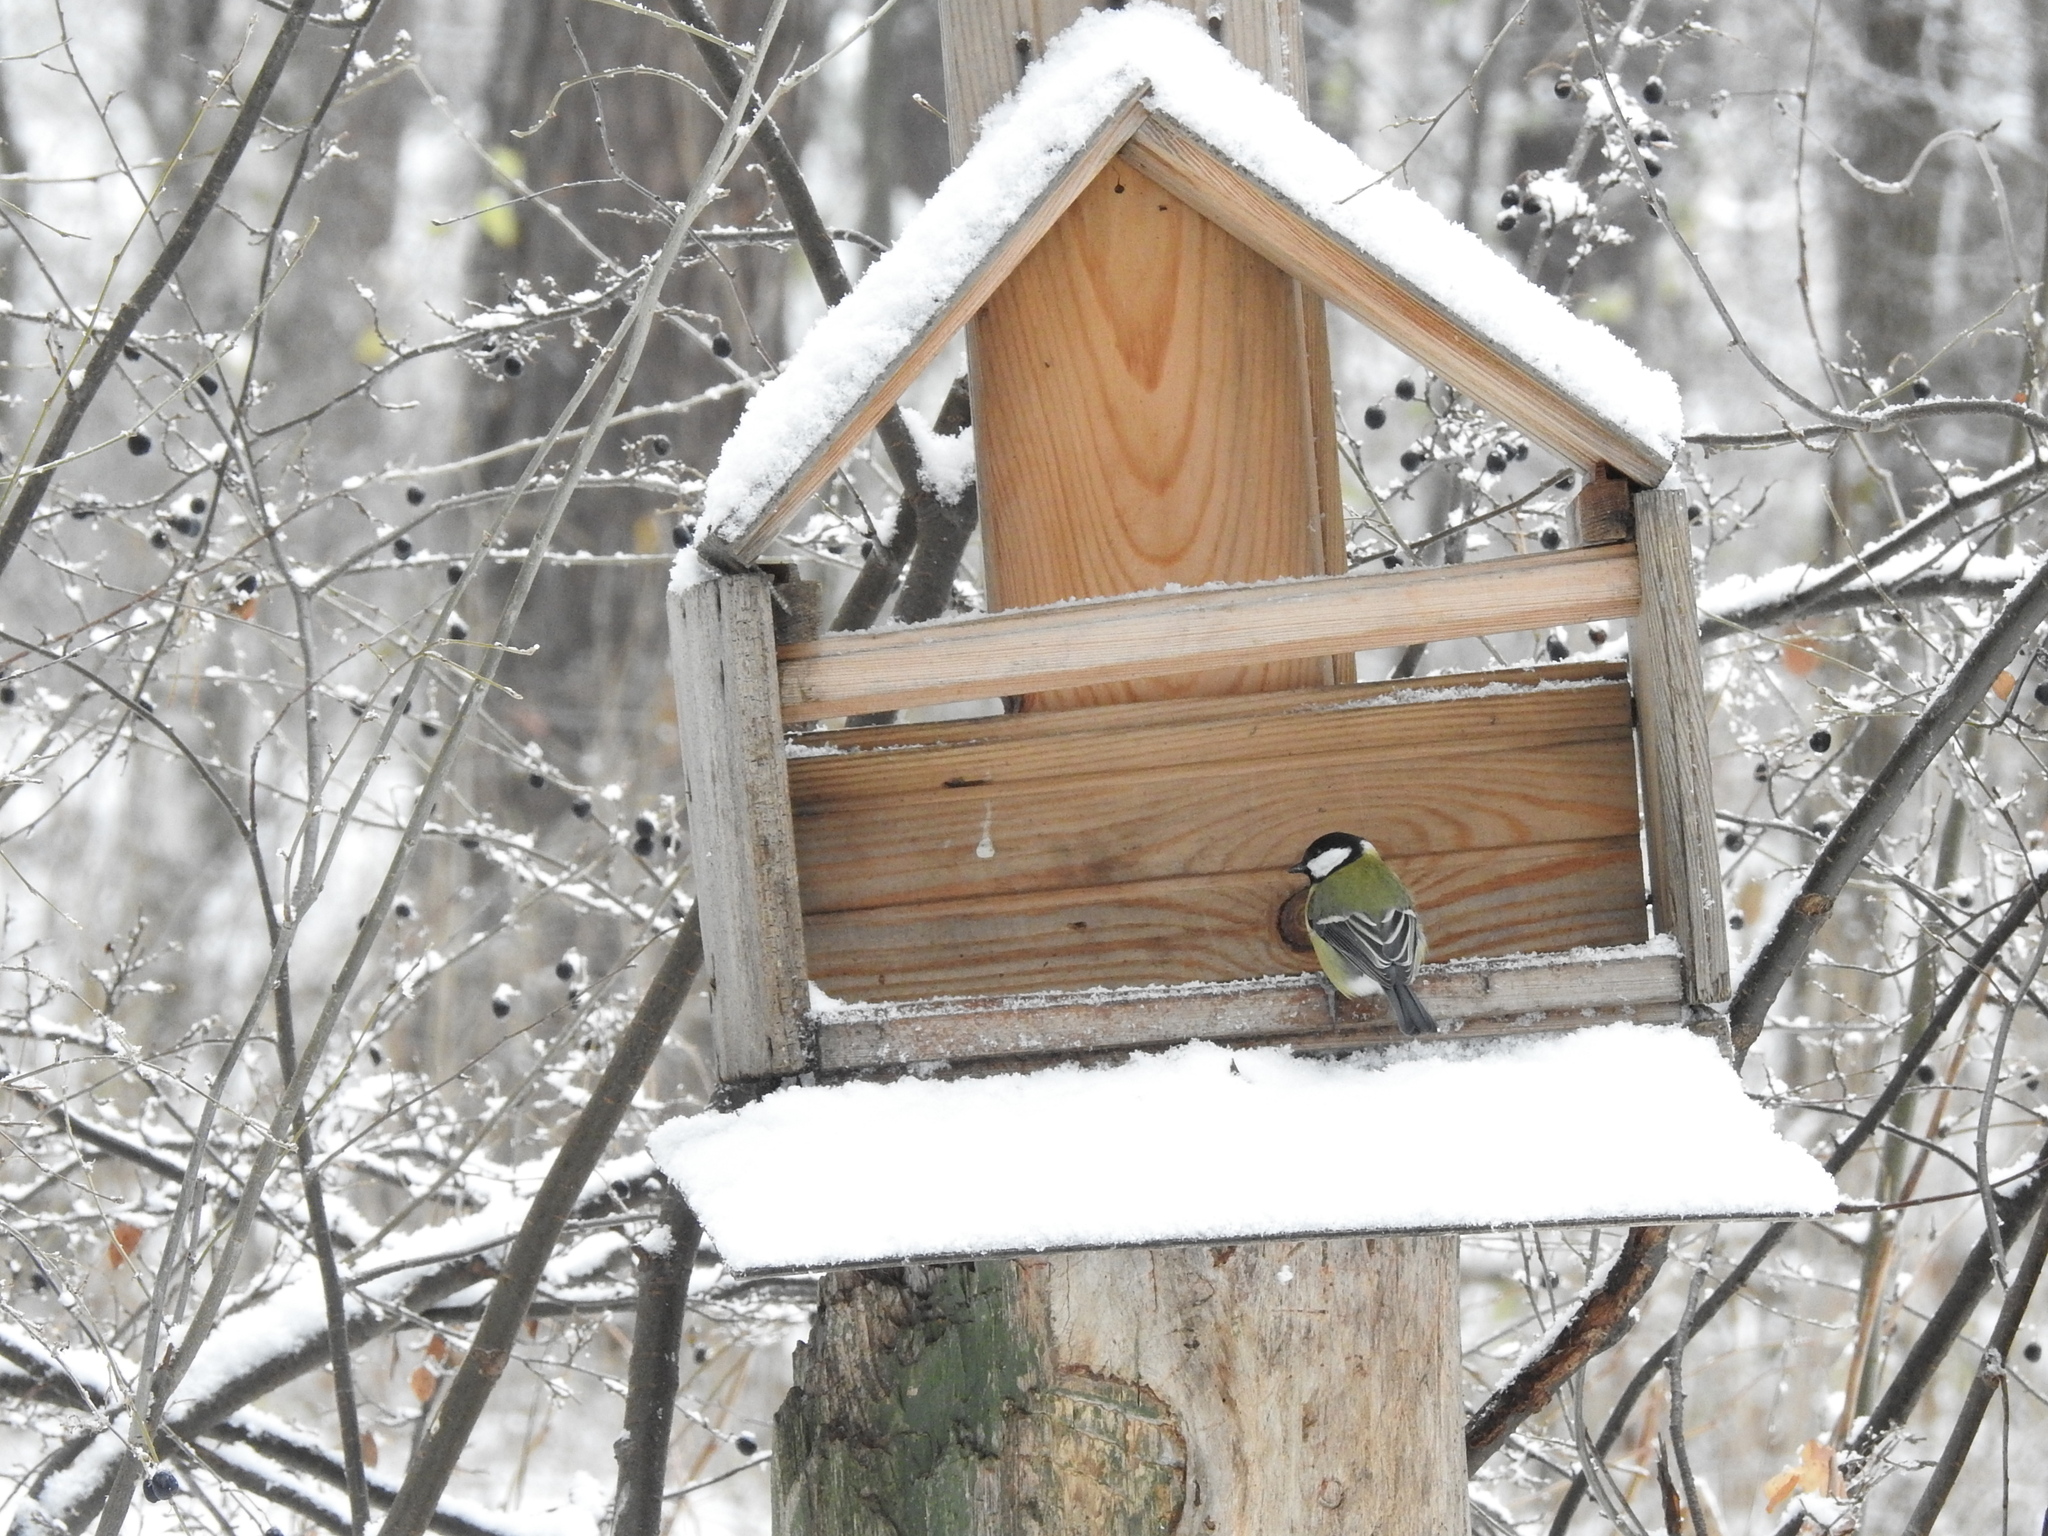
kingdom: Animalia
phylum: Chordata
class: Aves
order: Passeriformes
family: Paridae
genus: Parus
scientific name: Parus major
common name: Great tit
